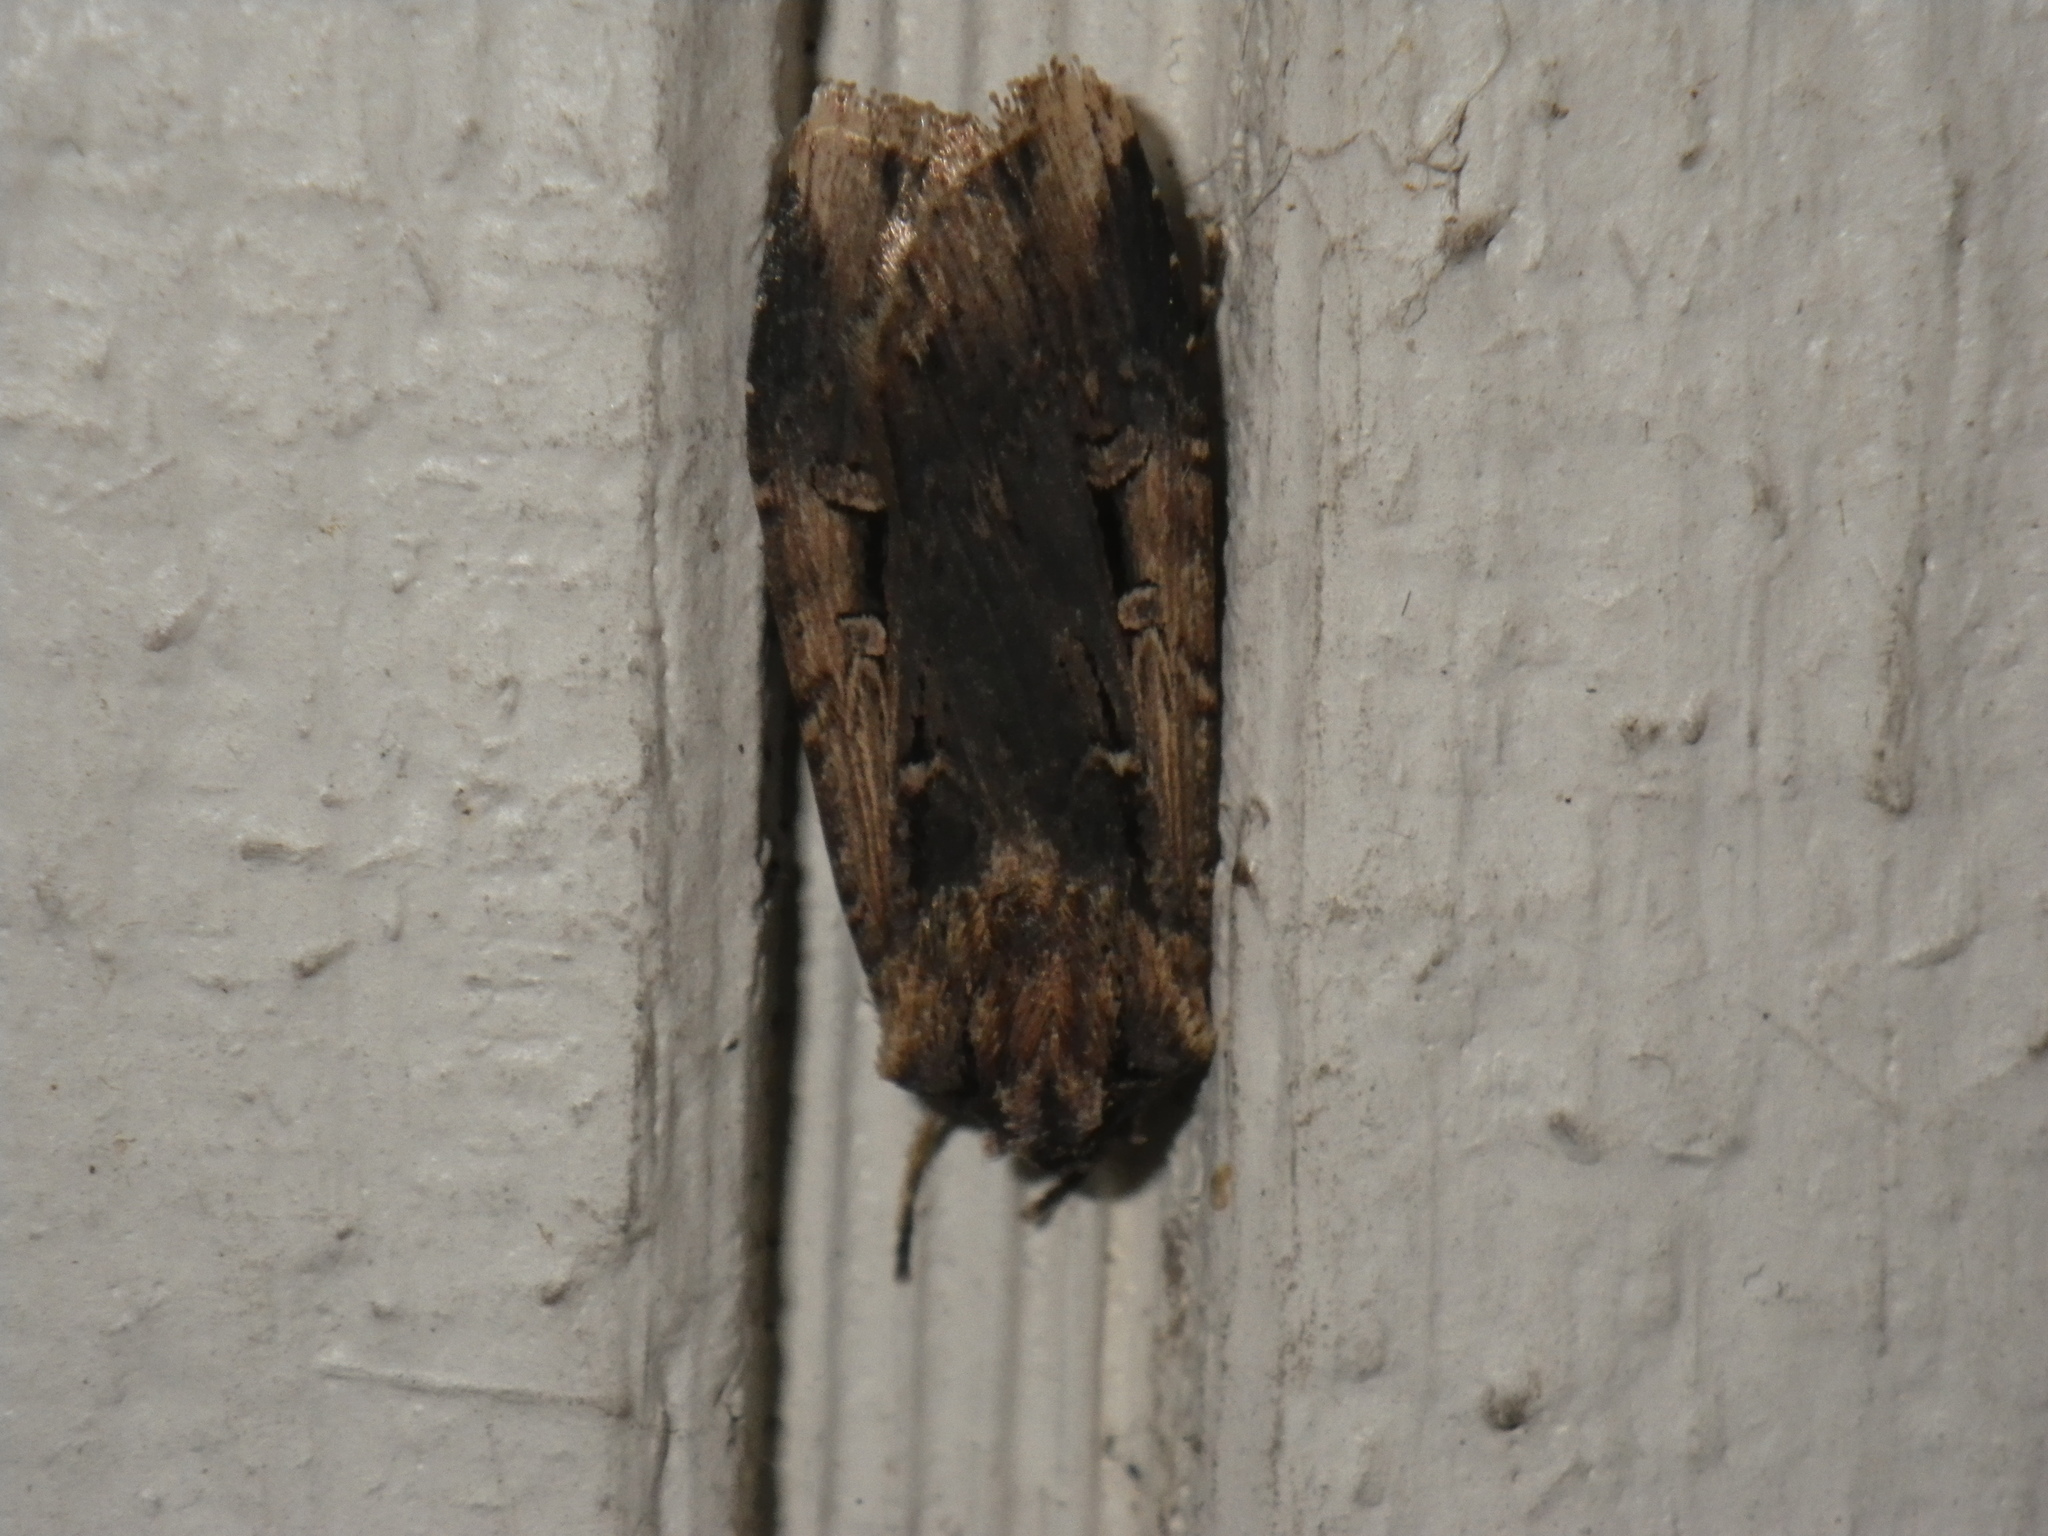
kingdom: Animalia
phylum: Arthropoda
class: Insecta
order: Lepidoptera
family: Noctuidae
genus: Feltia
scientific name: Feltia subterranea
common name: Granulate cutworm
